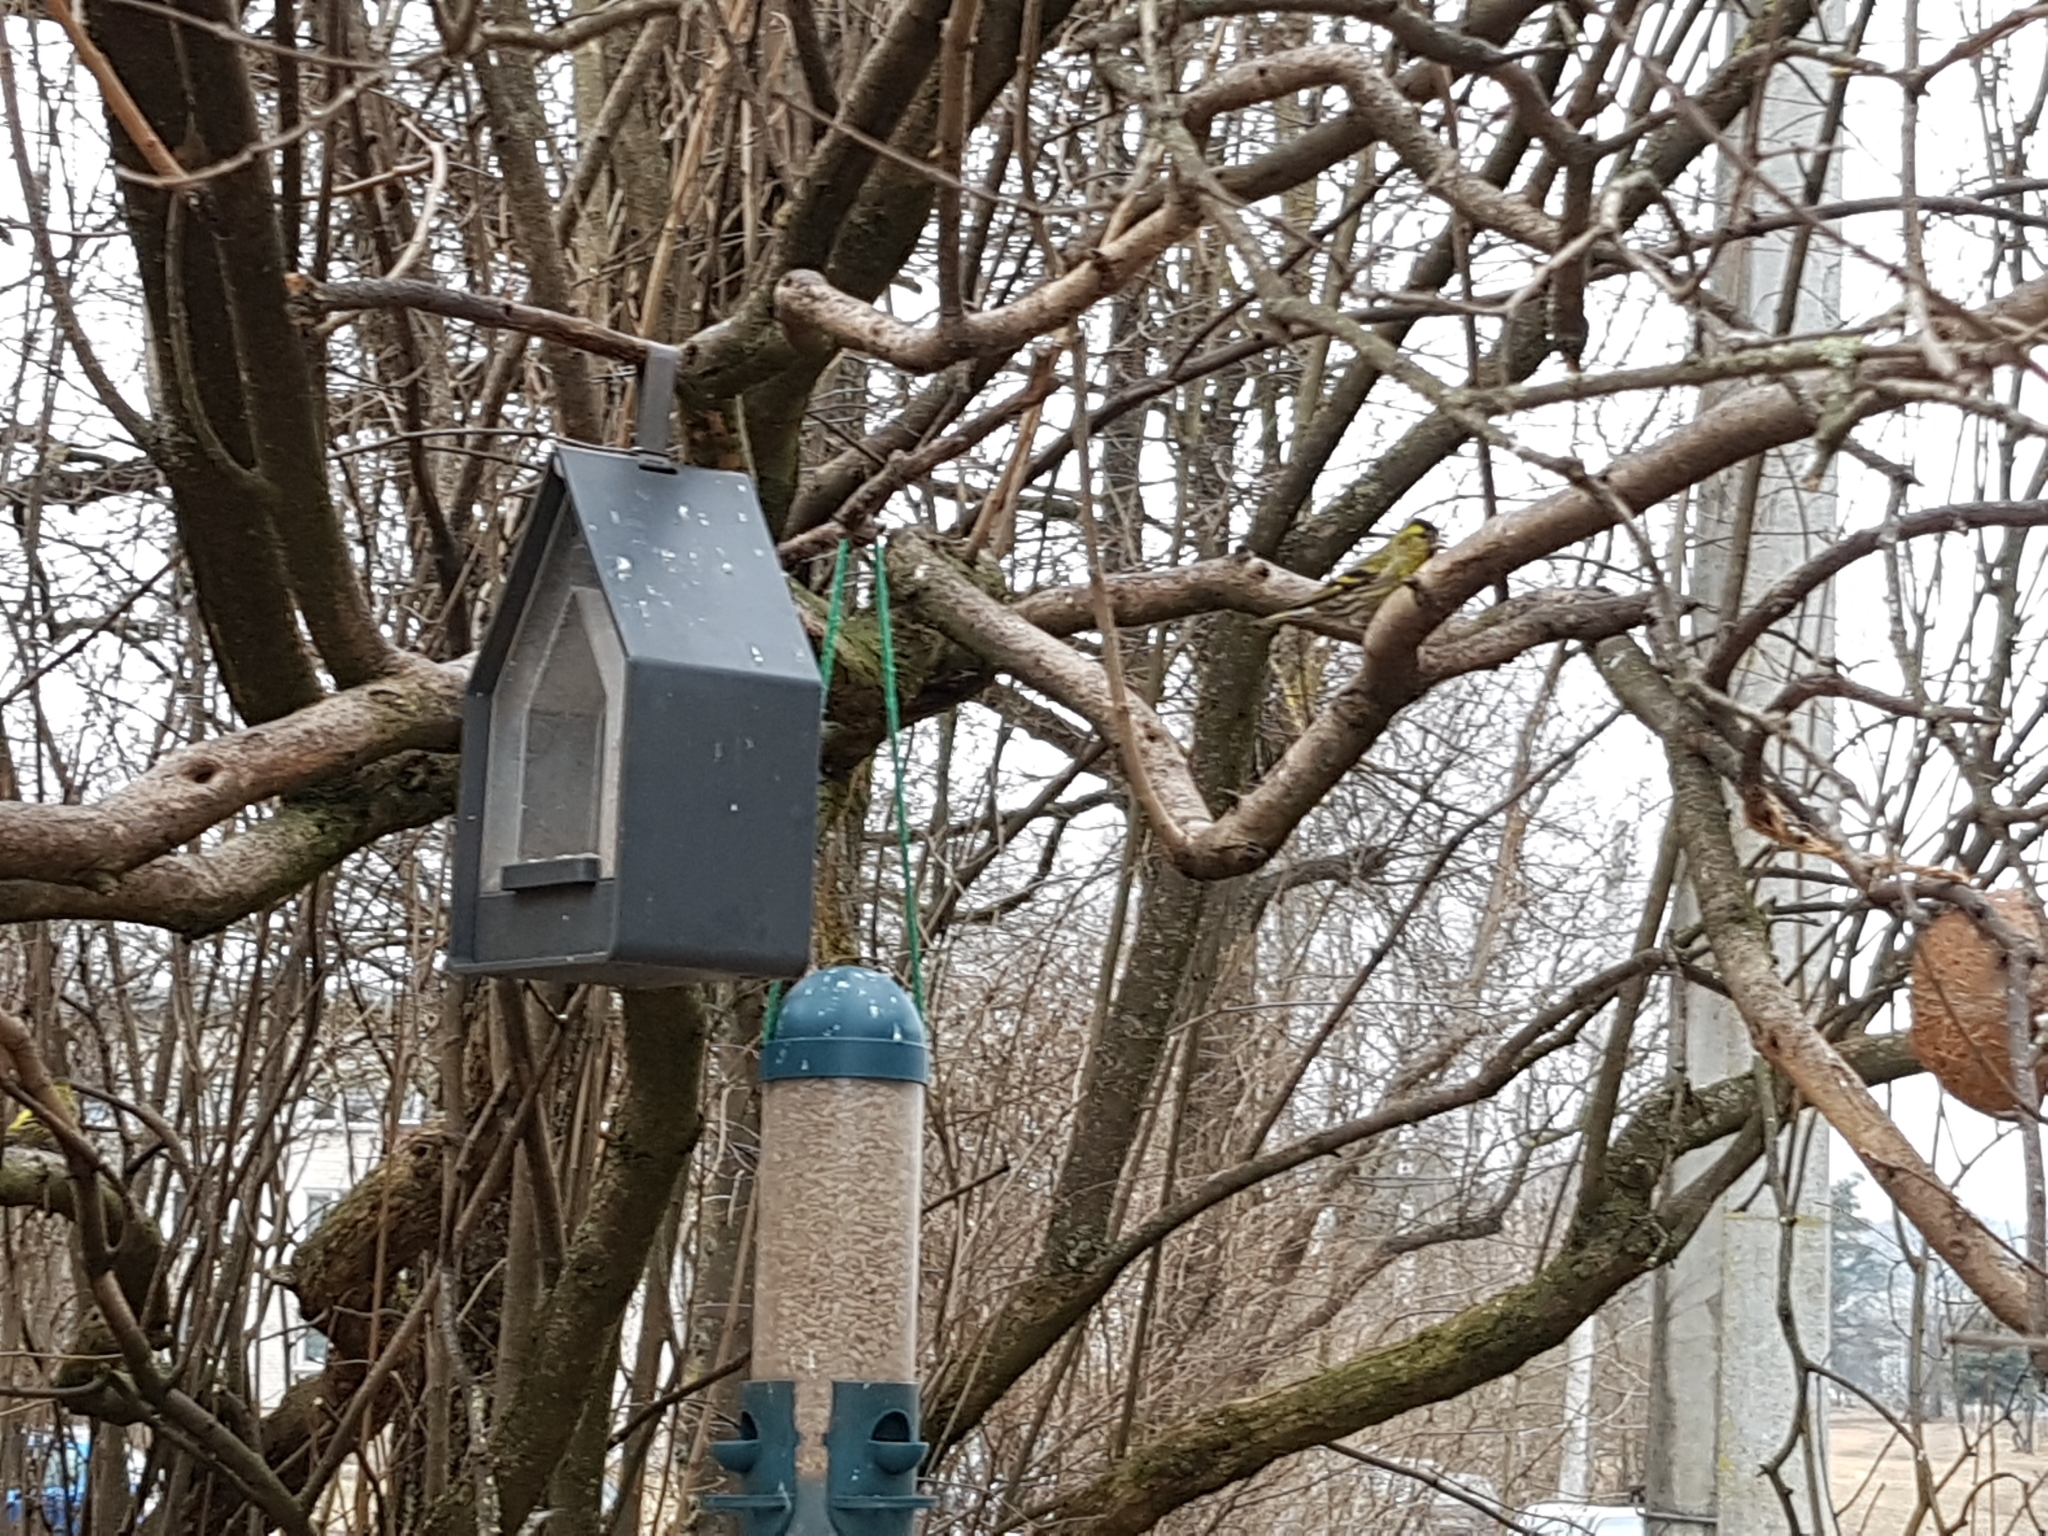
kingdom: Animalia
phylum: Chordata
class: Aves
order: Passeriformes
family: Fringillidae
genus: Spinus
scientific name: Spinus spinus
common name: Eurasian siskin
